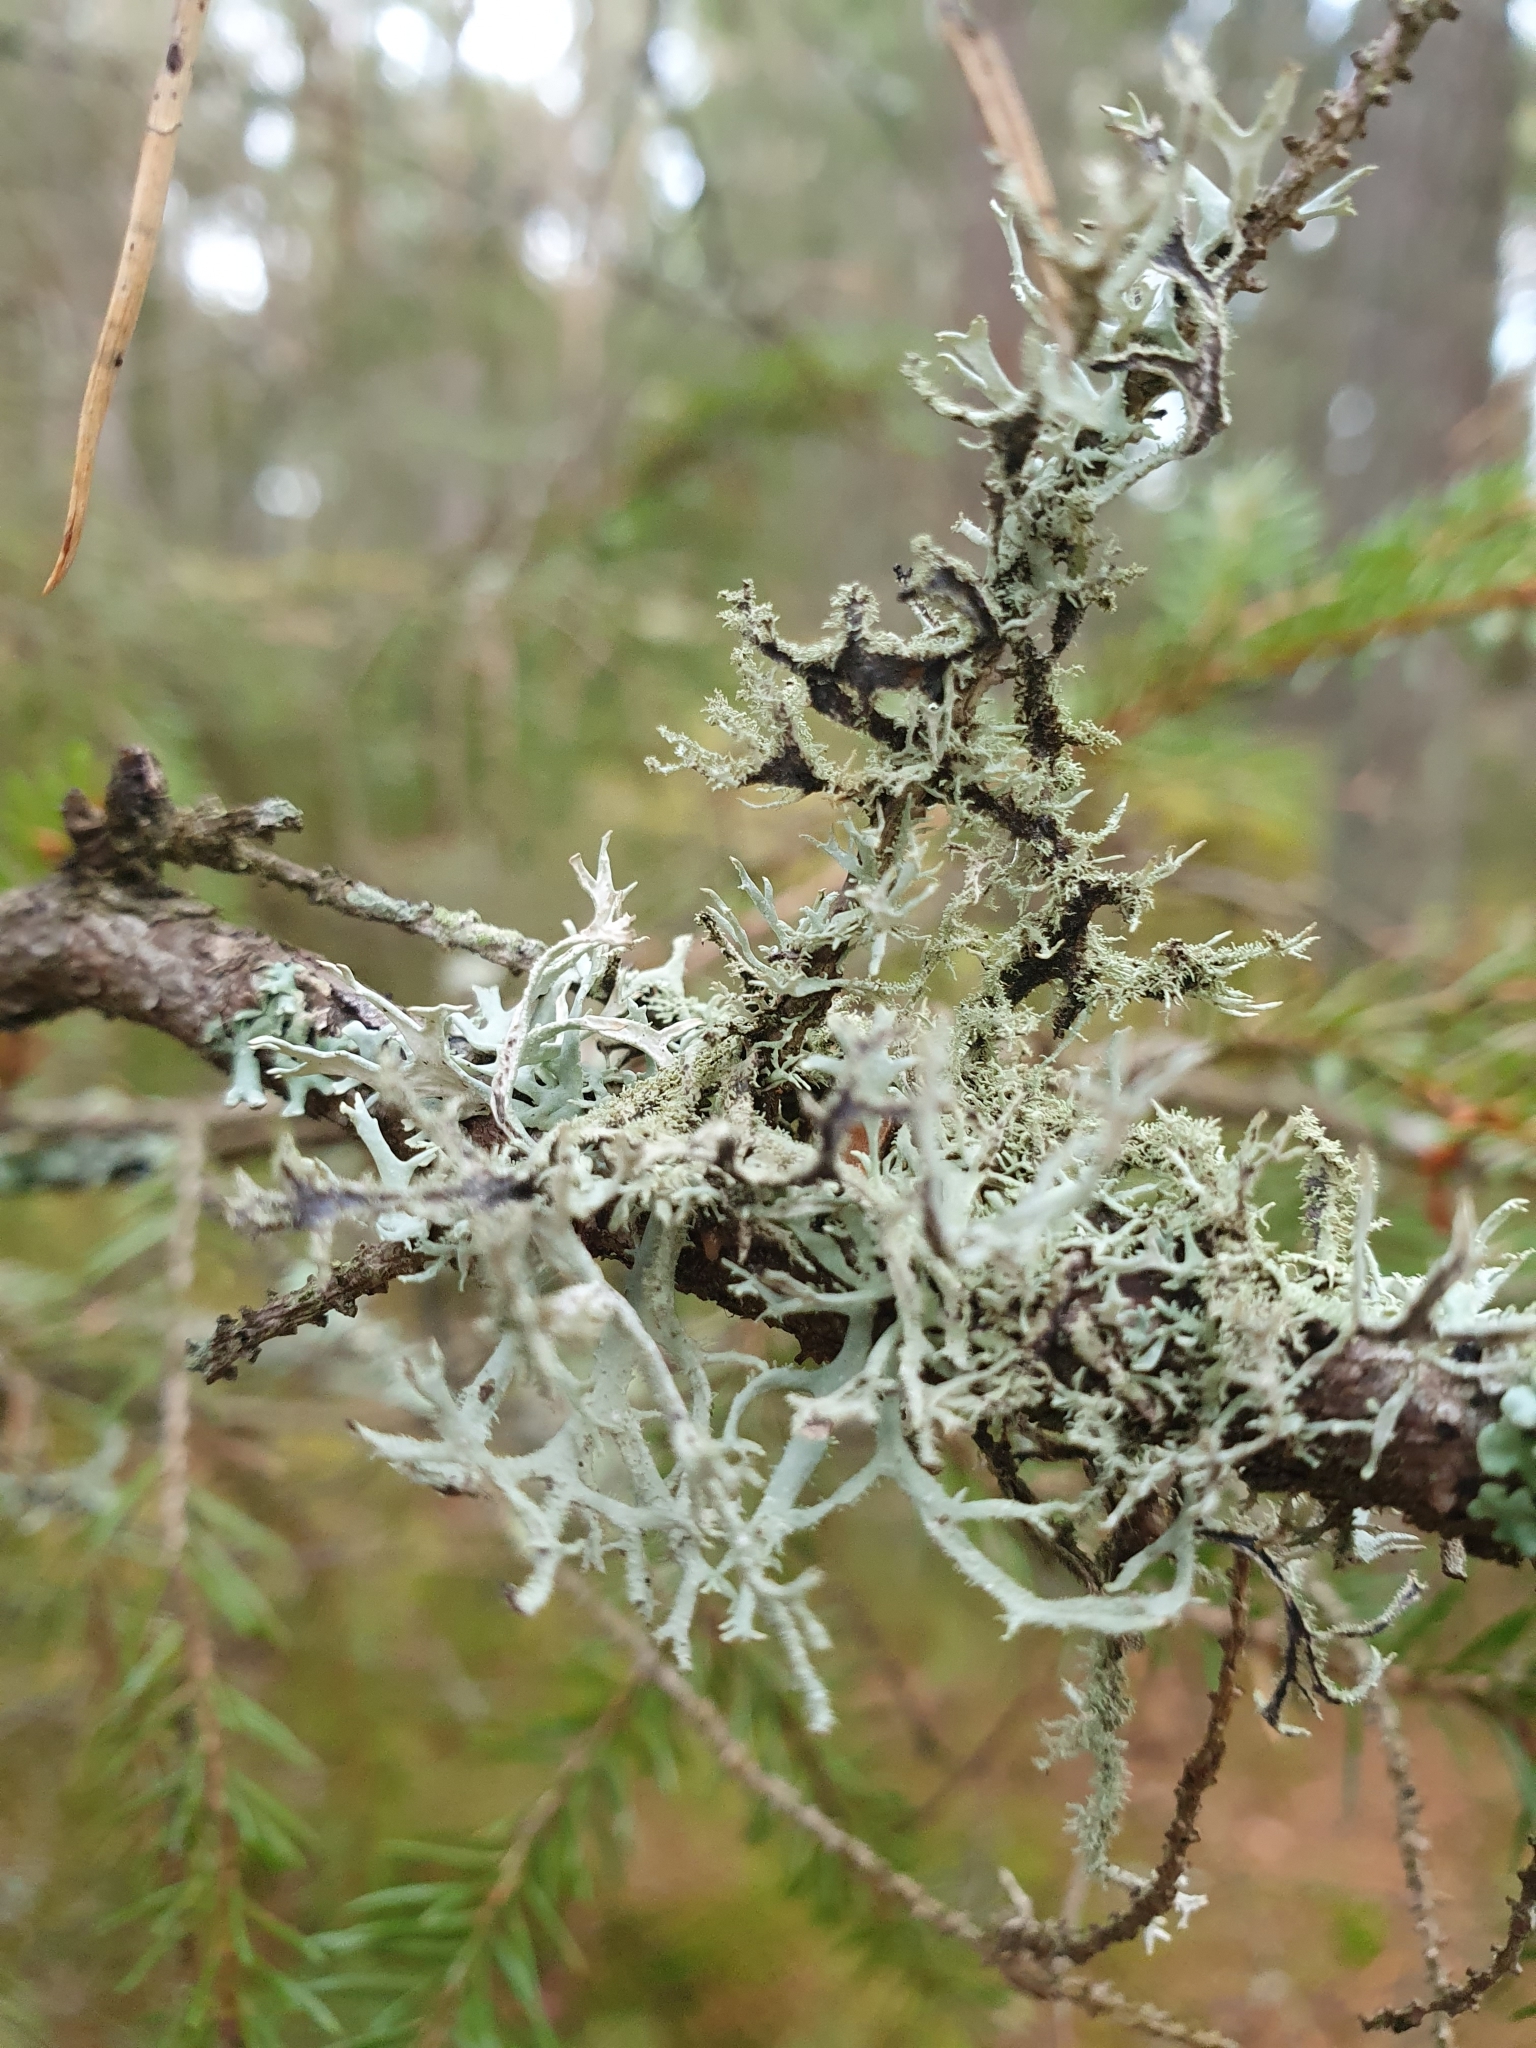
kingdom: Fungi
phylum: Ascomycota
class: Lecanoromycetes
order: Lecanorales
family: Parmeliaceae
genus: Pseudevernia
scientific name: Pseudevernia furfuracea
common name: Tree moss
